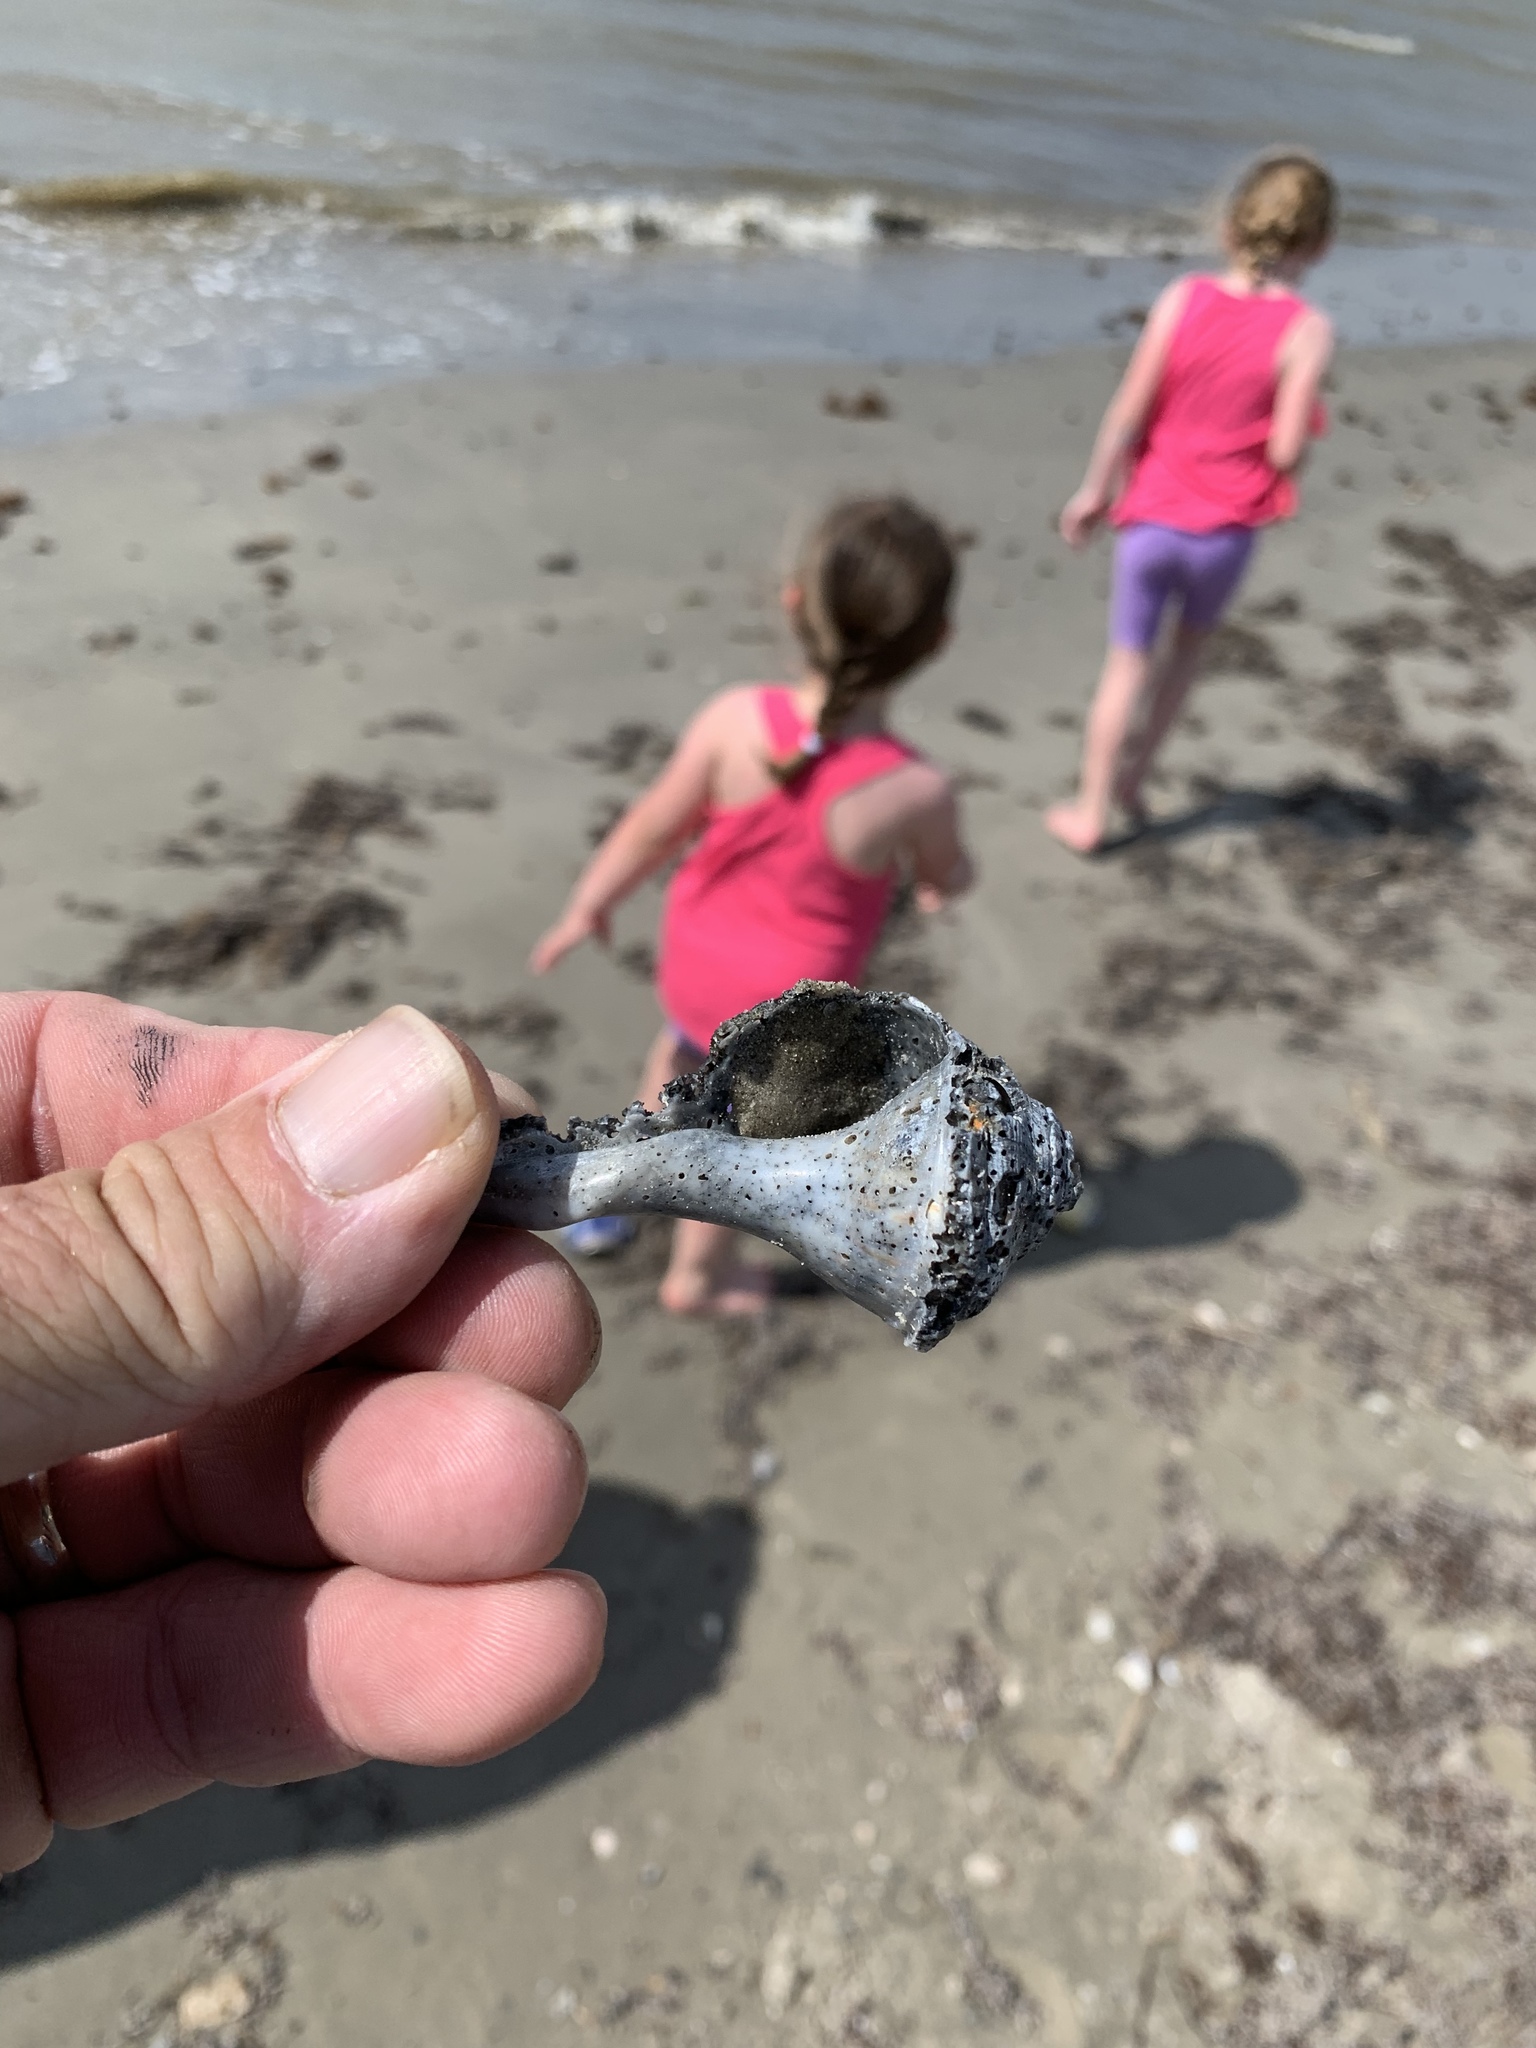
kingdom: Animalia
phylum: Mollusca
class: Gastropoda
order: Neogastropoda
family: Busyconidae
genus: Sinistrofulgur
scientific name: Sinistrofulgur pulleyi
